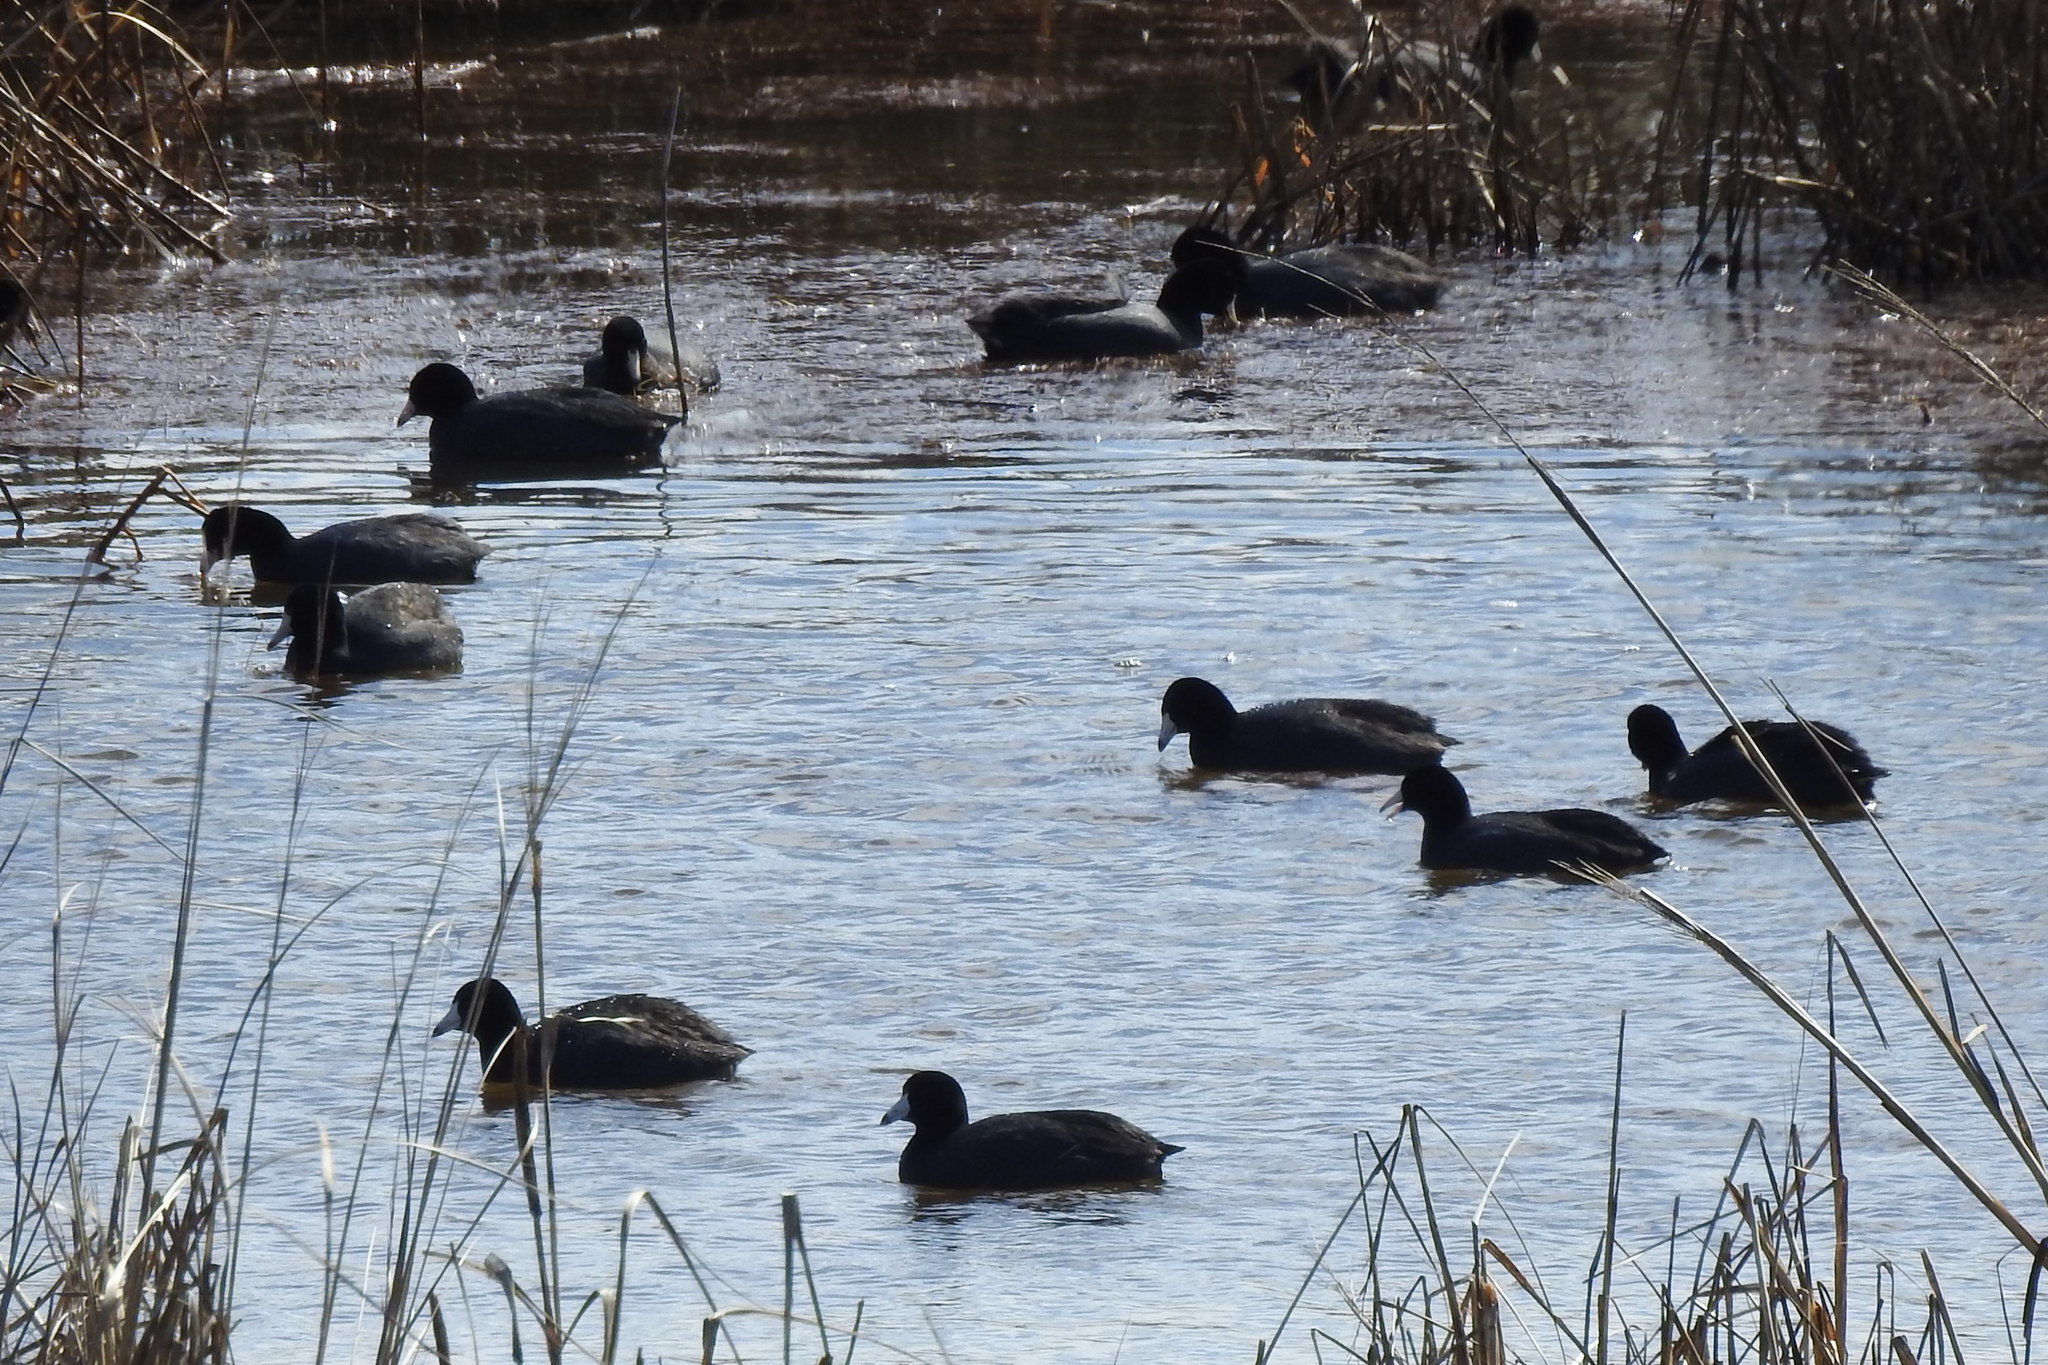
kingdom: Animalia
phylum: Chordata
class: Aves
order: Gruiformes
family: Rallidae
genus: Fulica
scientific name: Fulica americana
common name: American coot
